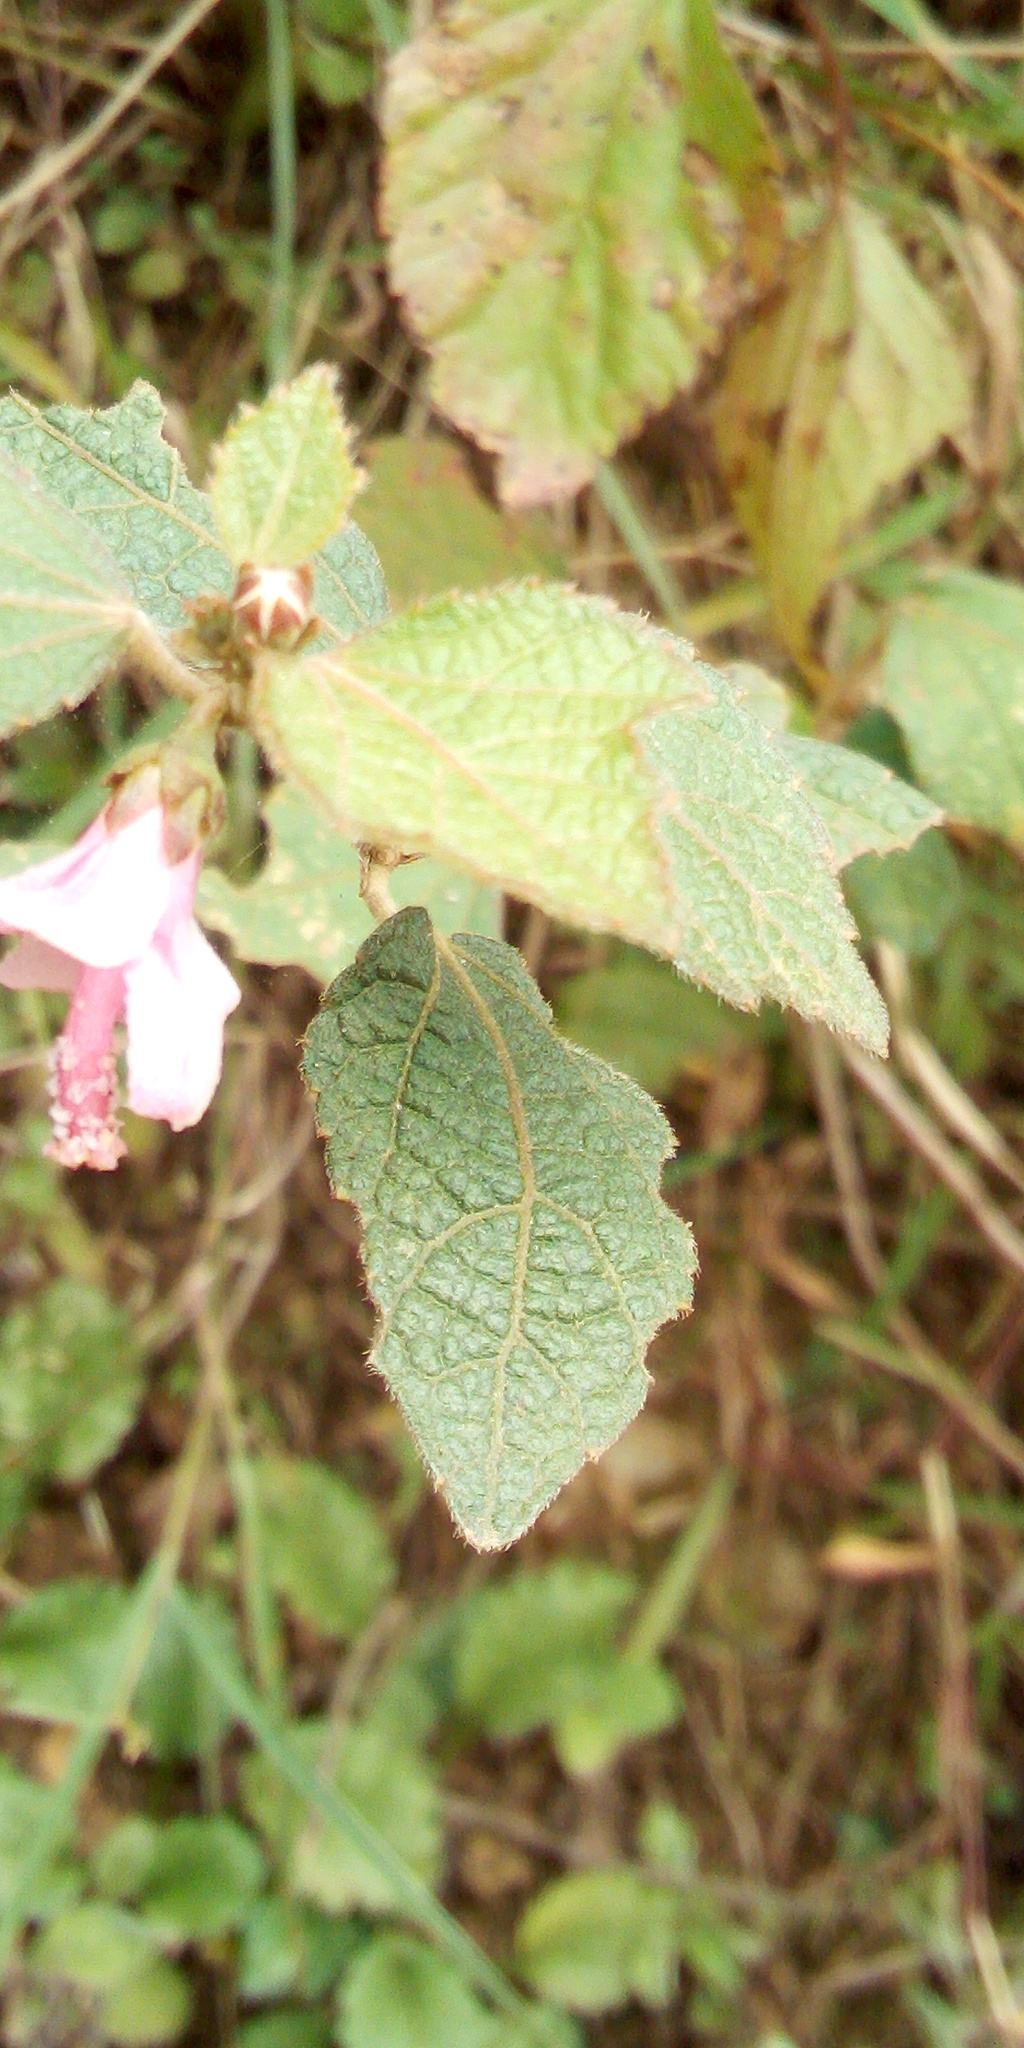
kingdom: Plantae
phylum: Tracheophyta
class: Magnoliopsida
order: Malvales
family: Malvaceae
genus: Urena
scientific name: Urena lobata
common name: Caesarweed
